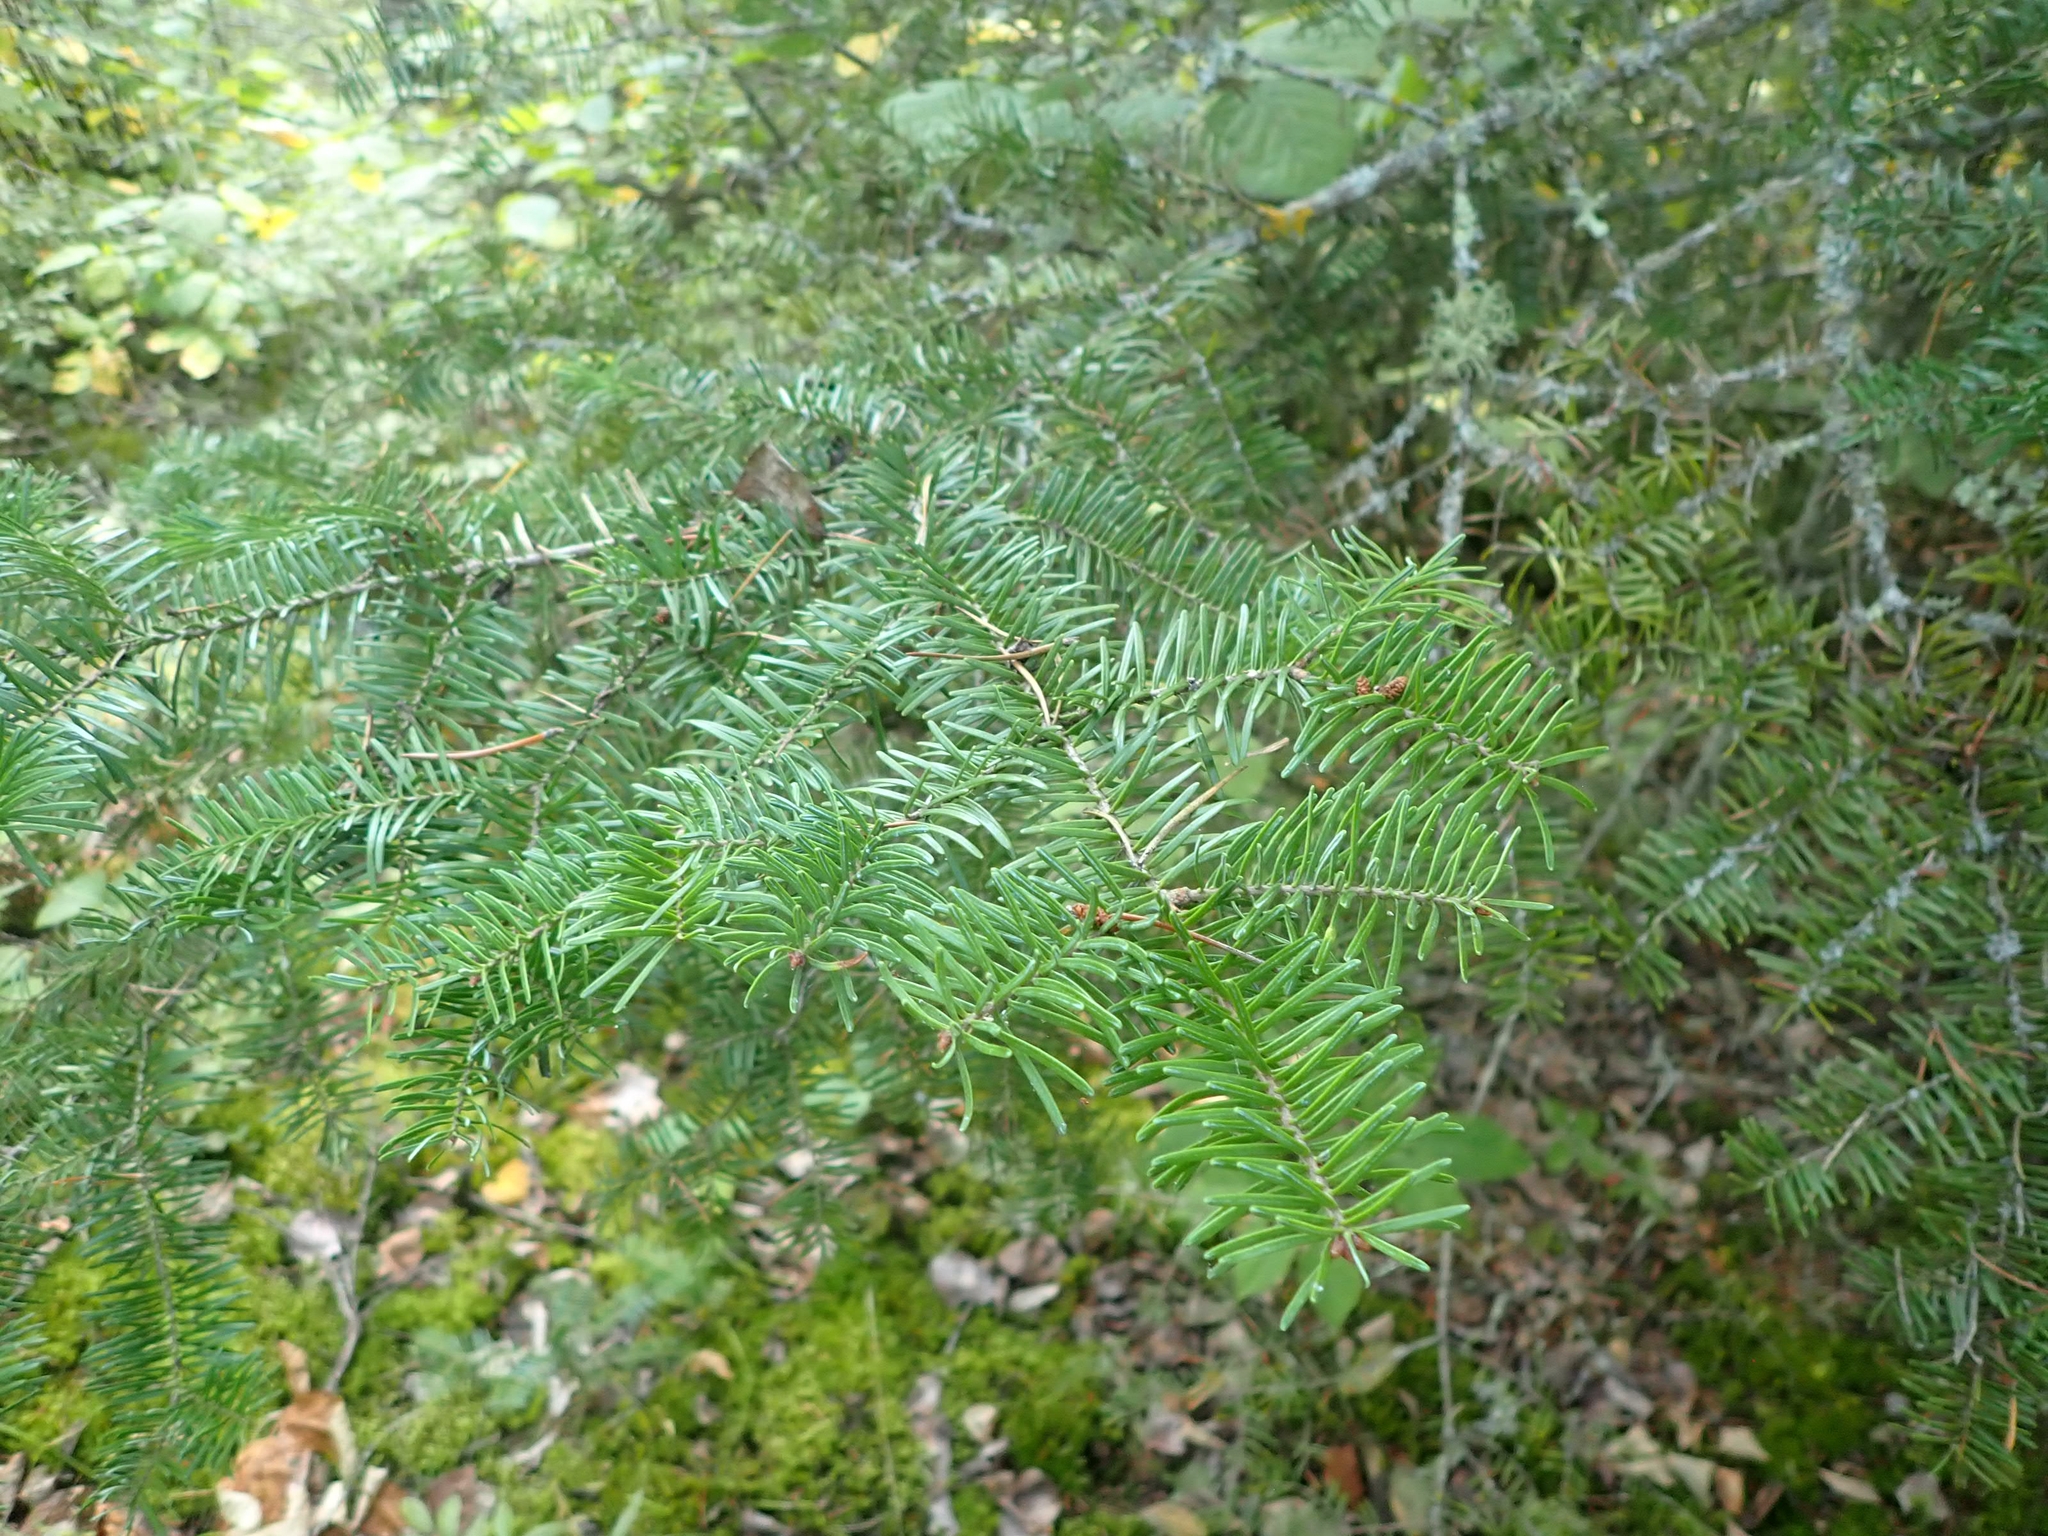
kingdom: Plantae
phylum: Tracheophyta
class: Pinopsida
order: Pinales
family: Pinaceae
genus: Abies
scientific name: Abies balsamea
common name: Balsam fir
